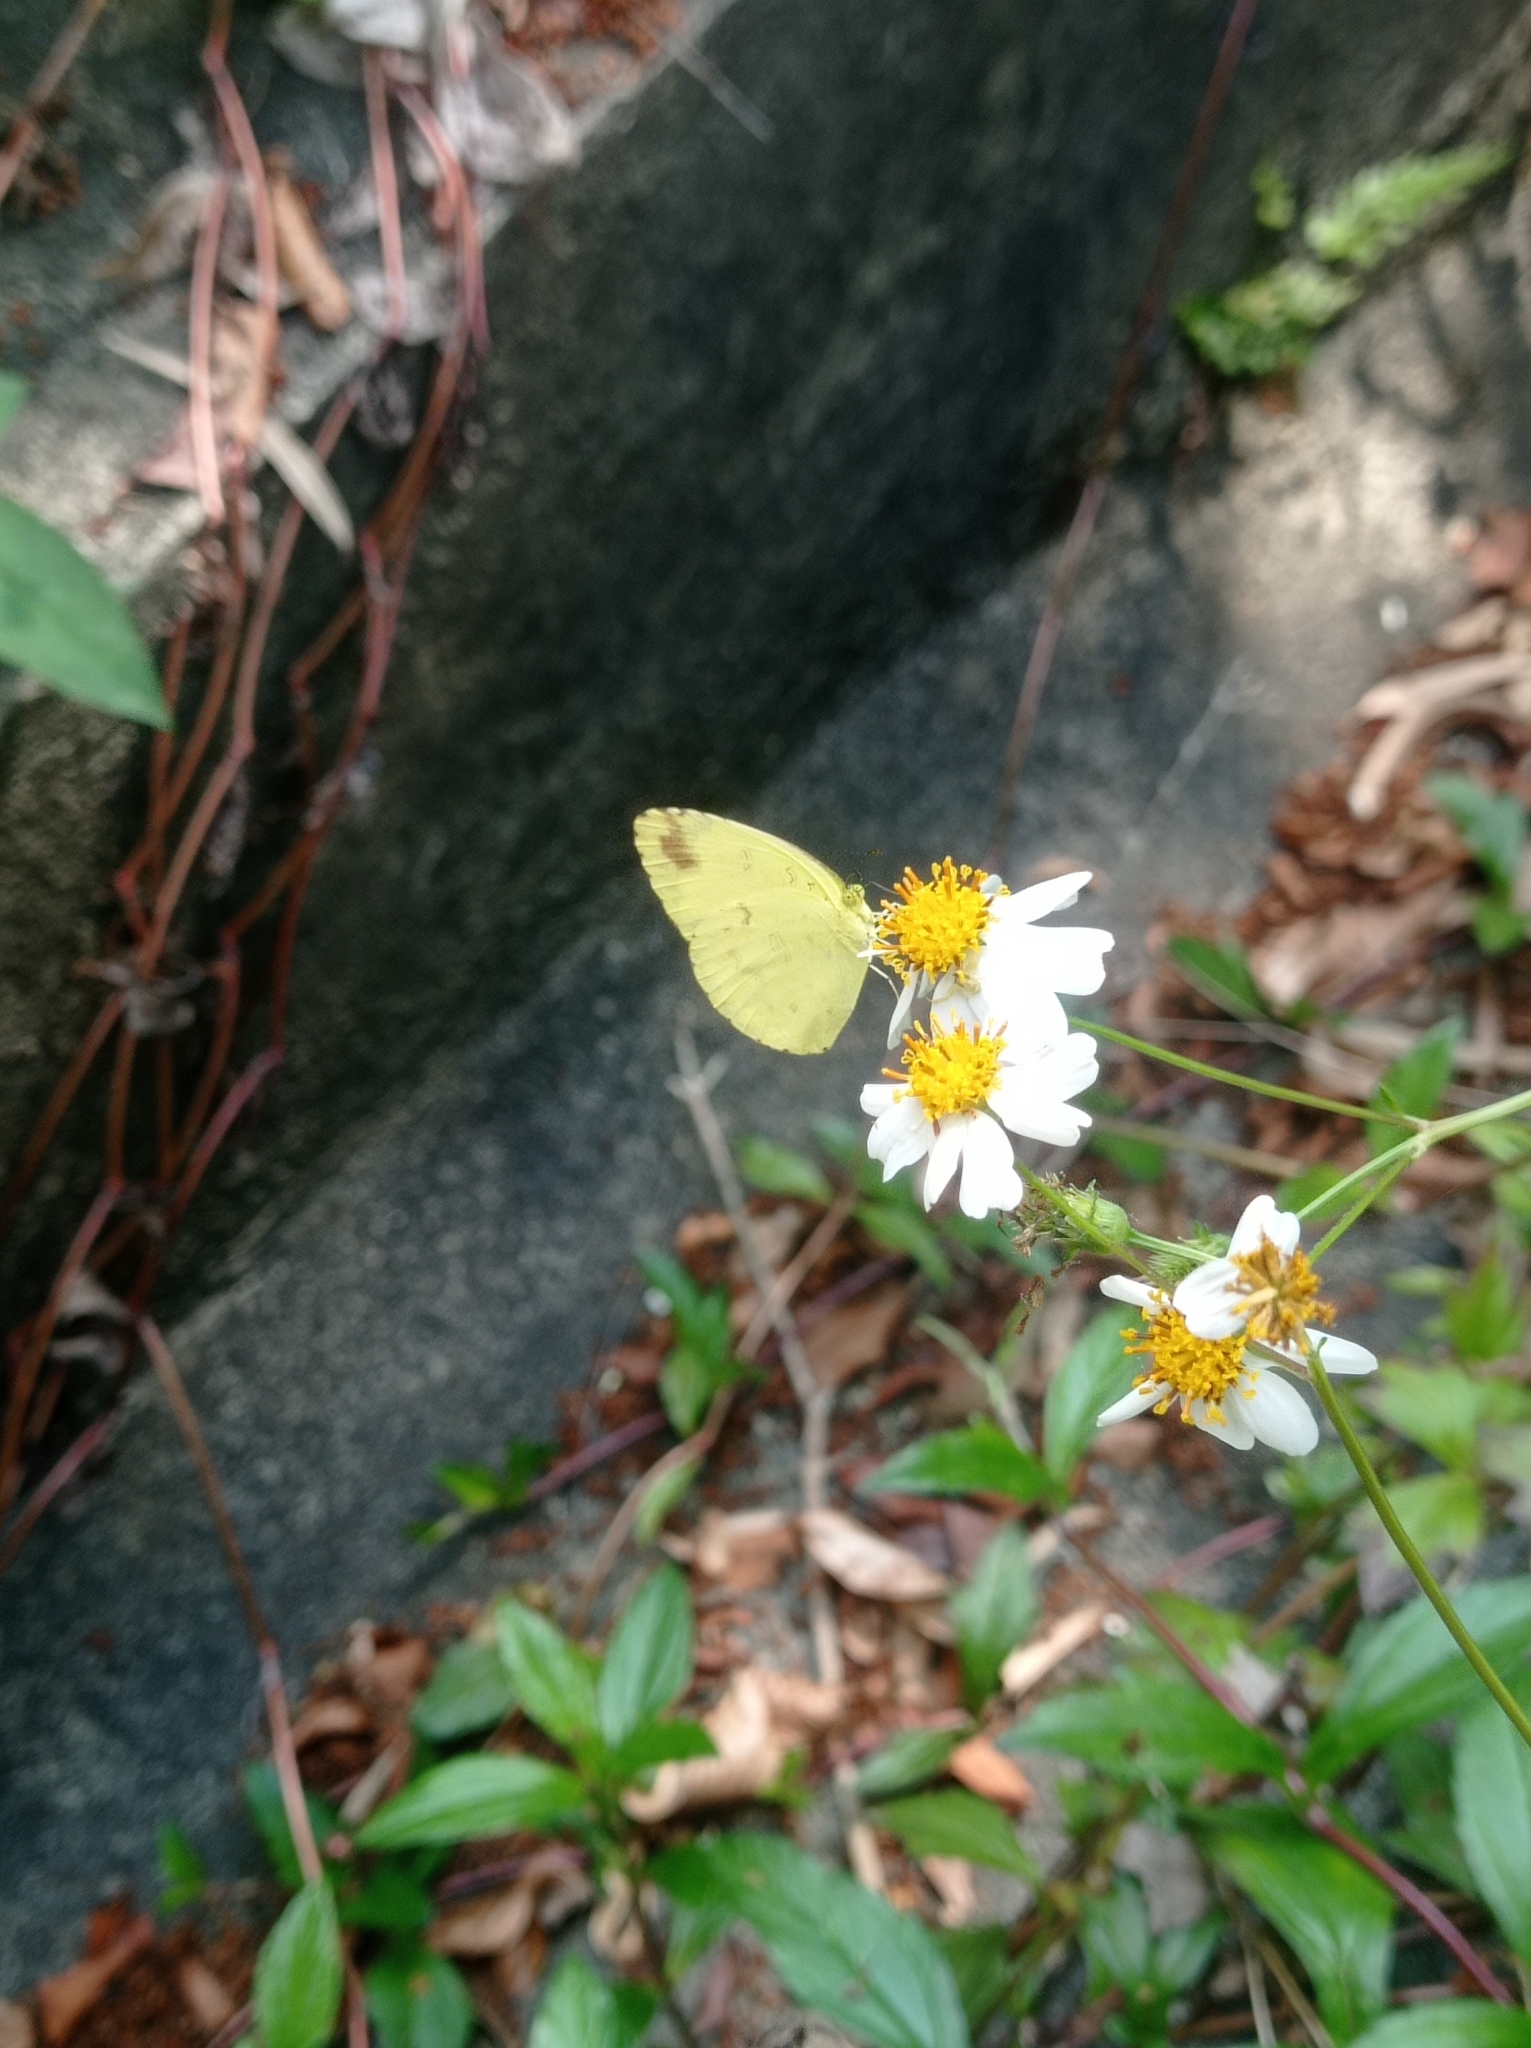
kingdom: Animalia
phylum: Arthropoda
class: Insecta
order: Lepidoptera
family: Pieridae
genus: Eurema
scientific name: Eurema blanda
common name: Three-spot grass yellow
